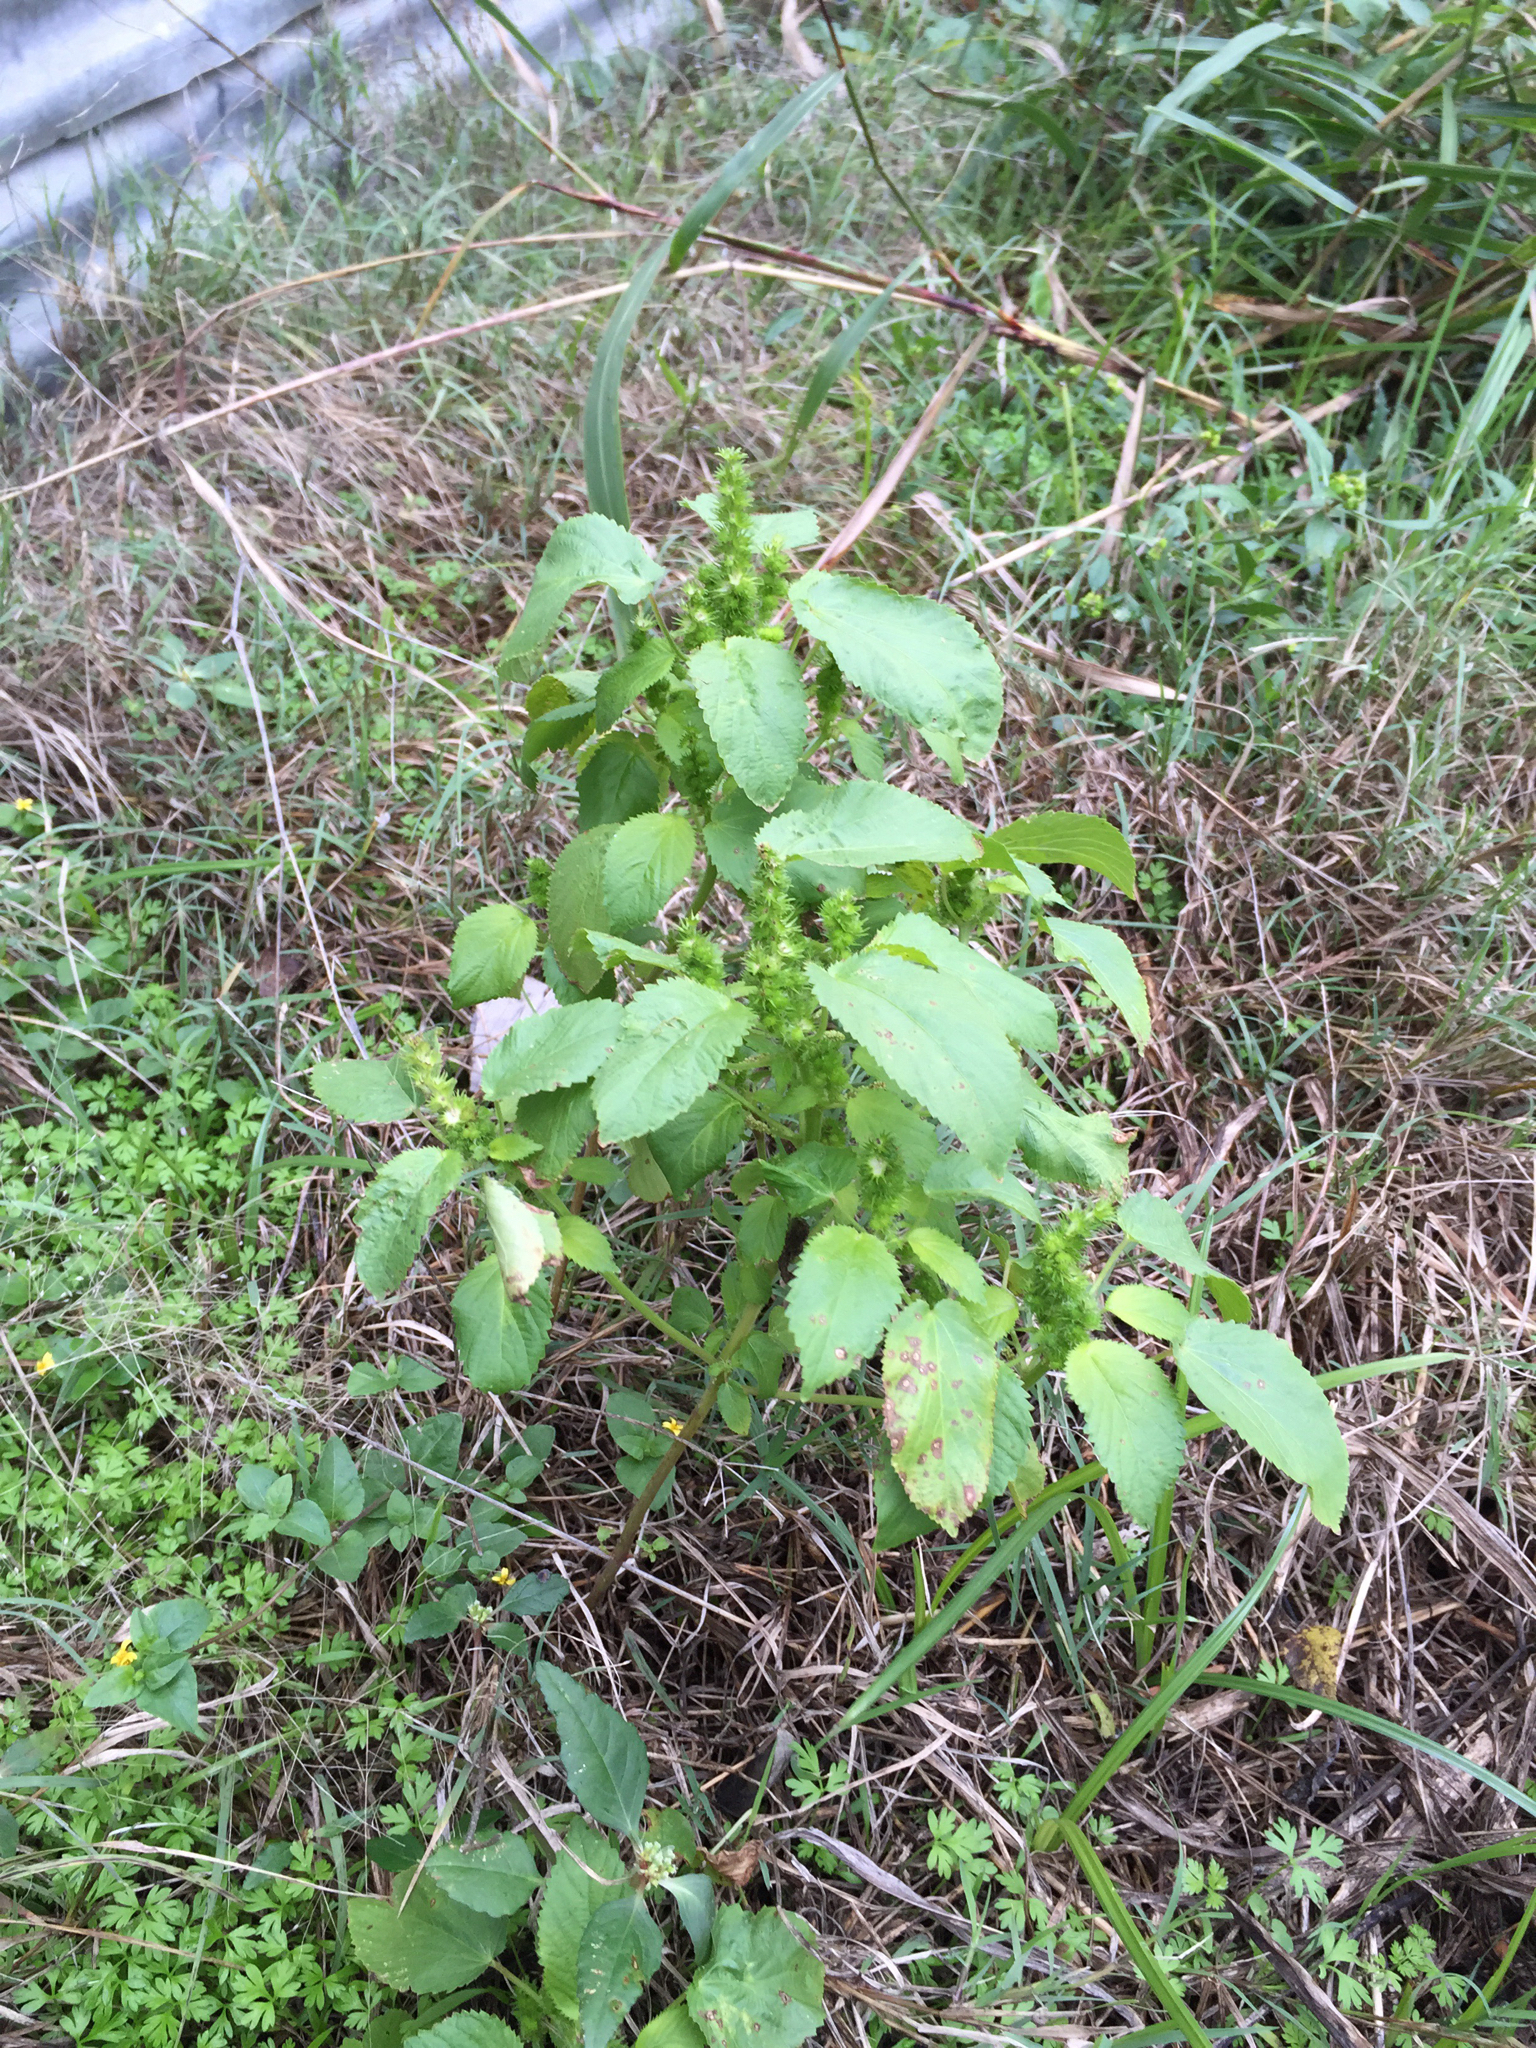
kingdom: Plantae
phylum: Tracheophyta
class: Magnoliopsida
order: Malpighiales
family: Euphorbiaceae
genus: Acalypha
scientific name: Acalypha ostryifolia
